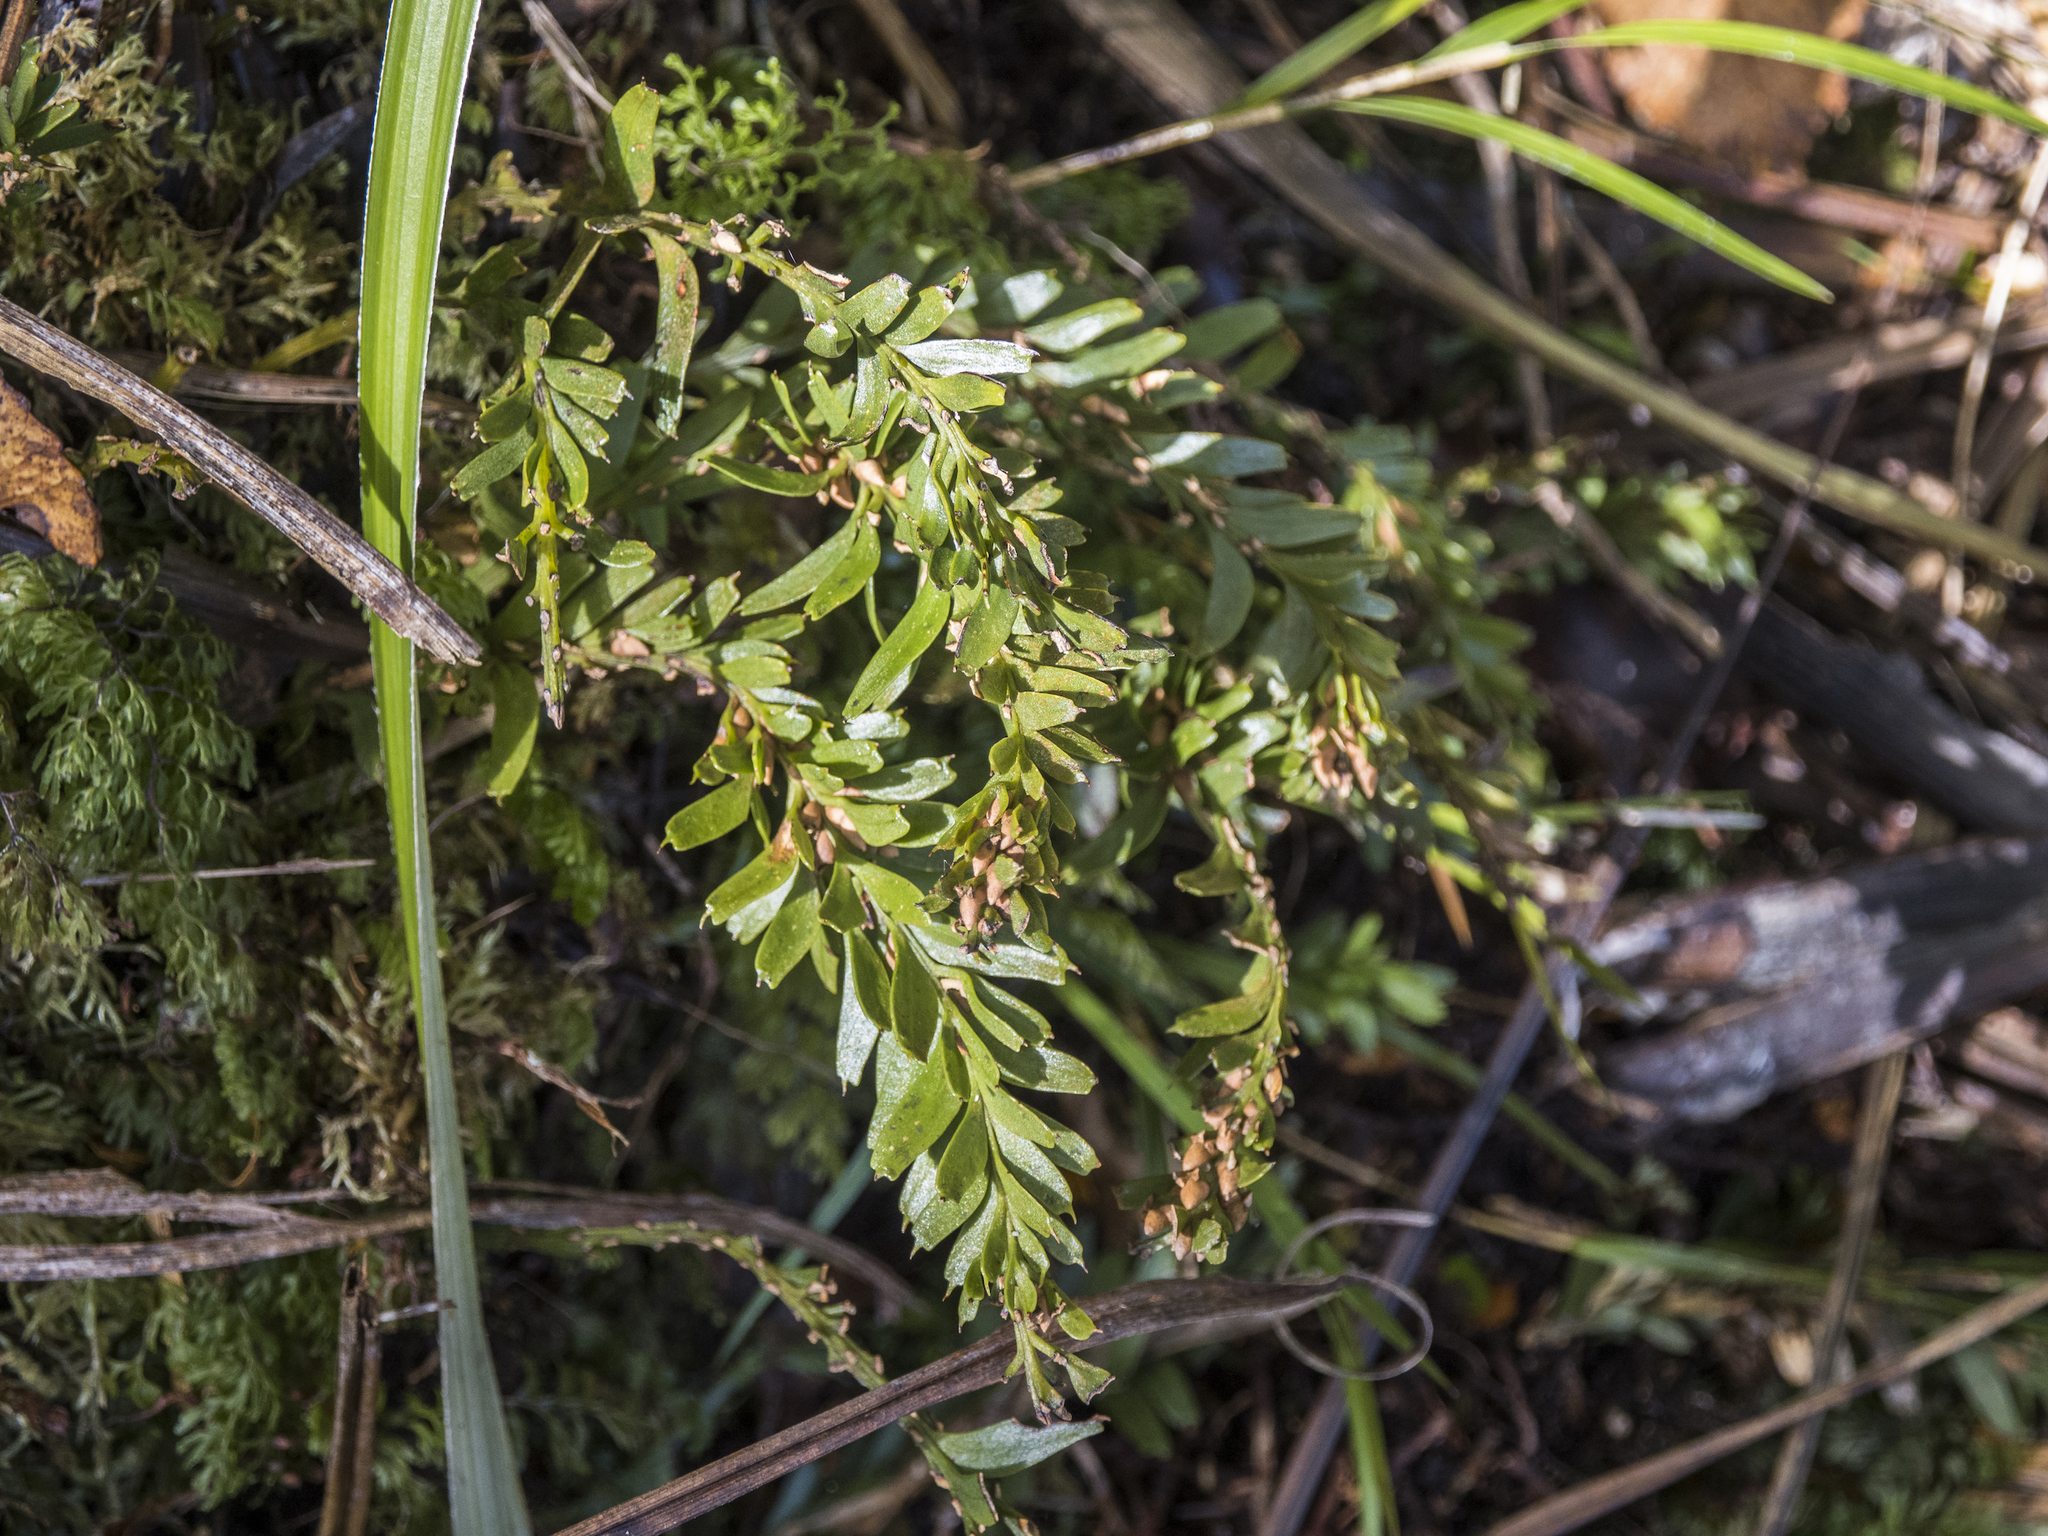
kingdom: Plantae
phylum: Tracheophyta
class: Polypodiopsida
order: Psilotales
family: Psilotaceae
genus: Tmesipteris
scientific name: Tmesipteris tannensis
